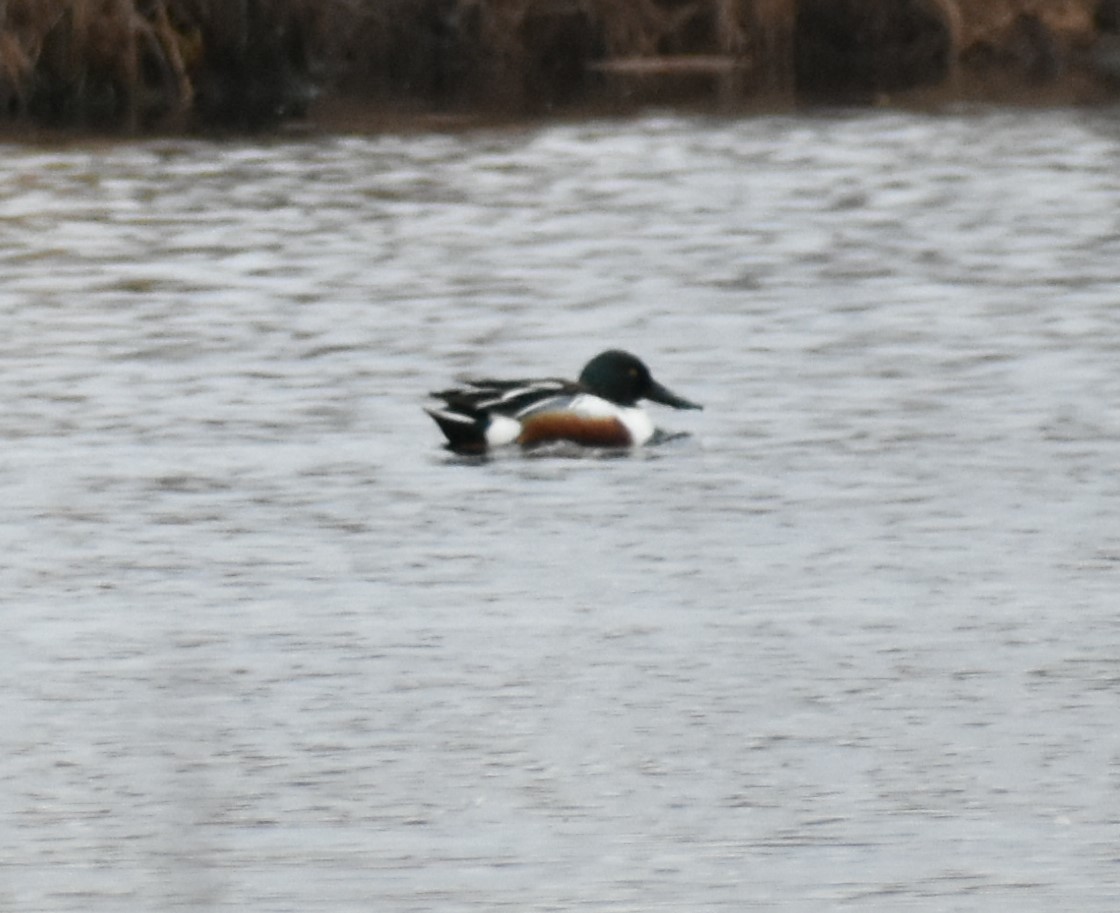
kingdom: Animalia
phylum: Chordata
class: Aves
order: Anseriformes
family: Anatidae
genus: Spatula
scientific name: Spatula clypeata
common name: Northern shoveler
